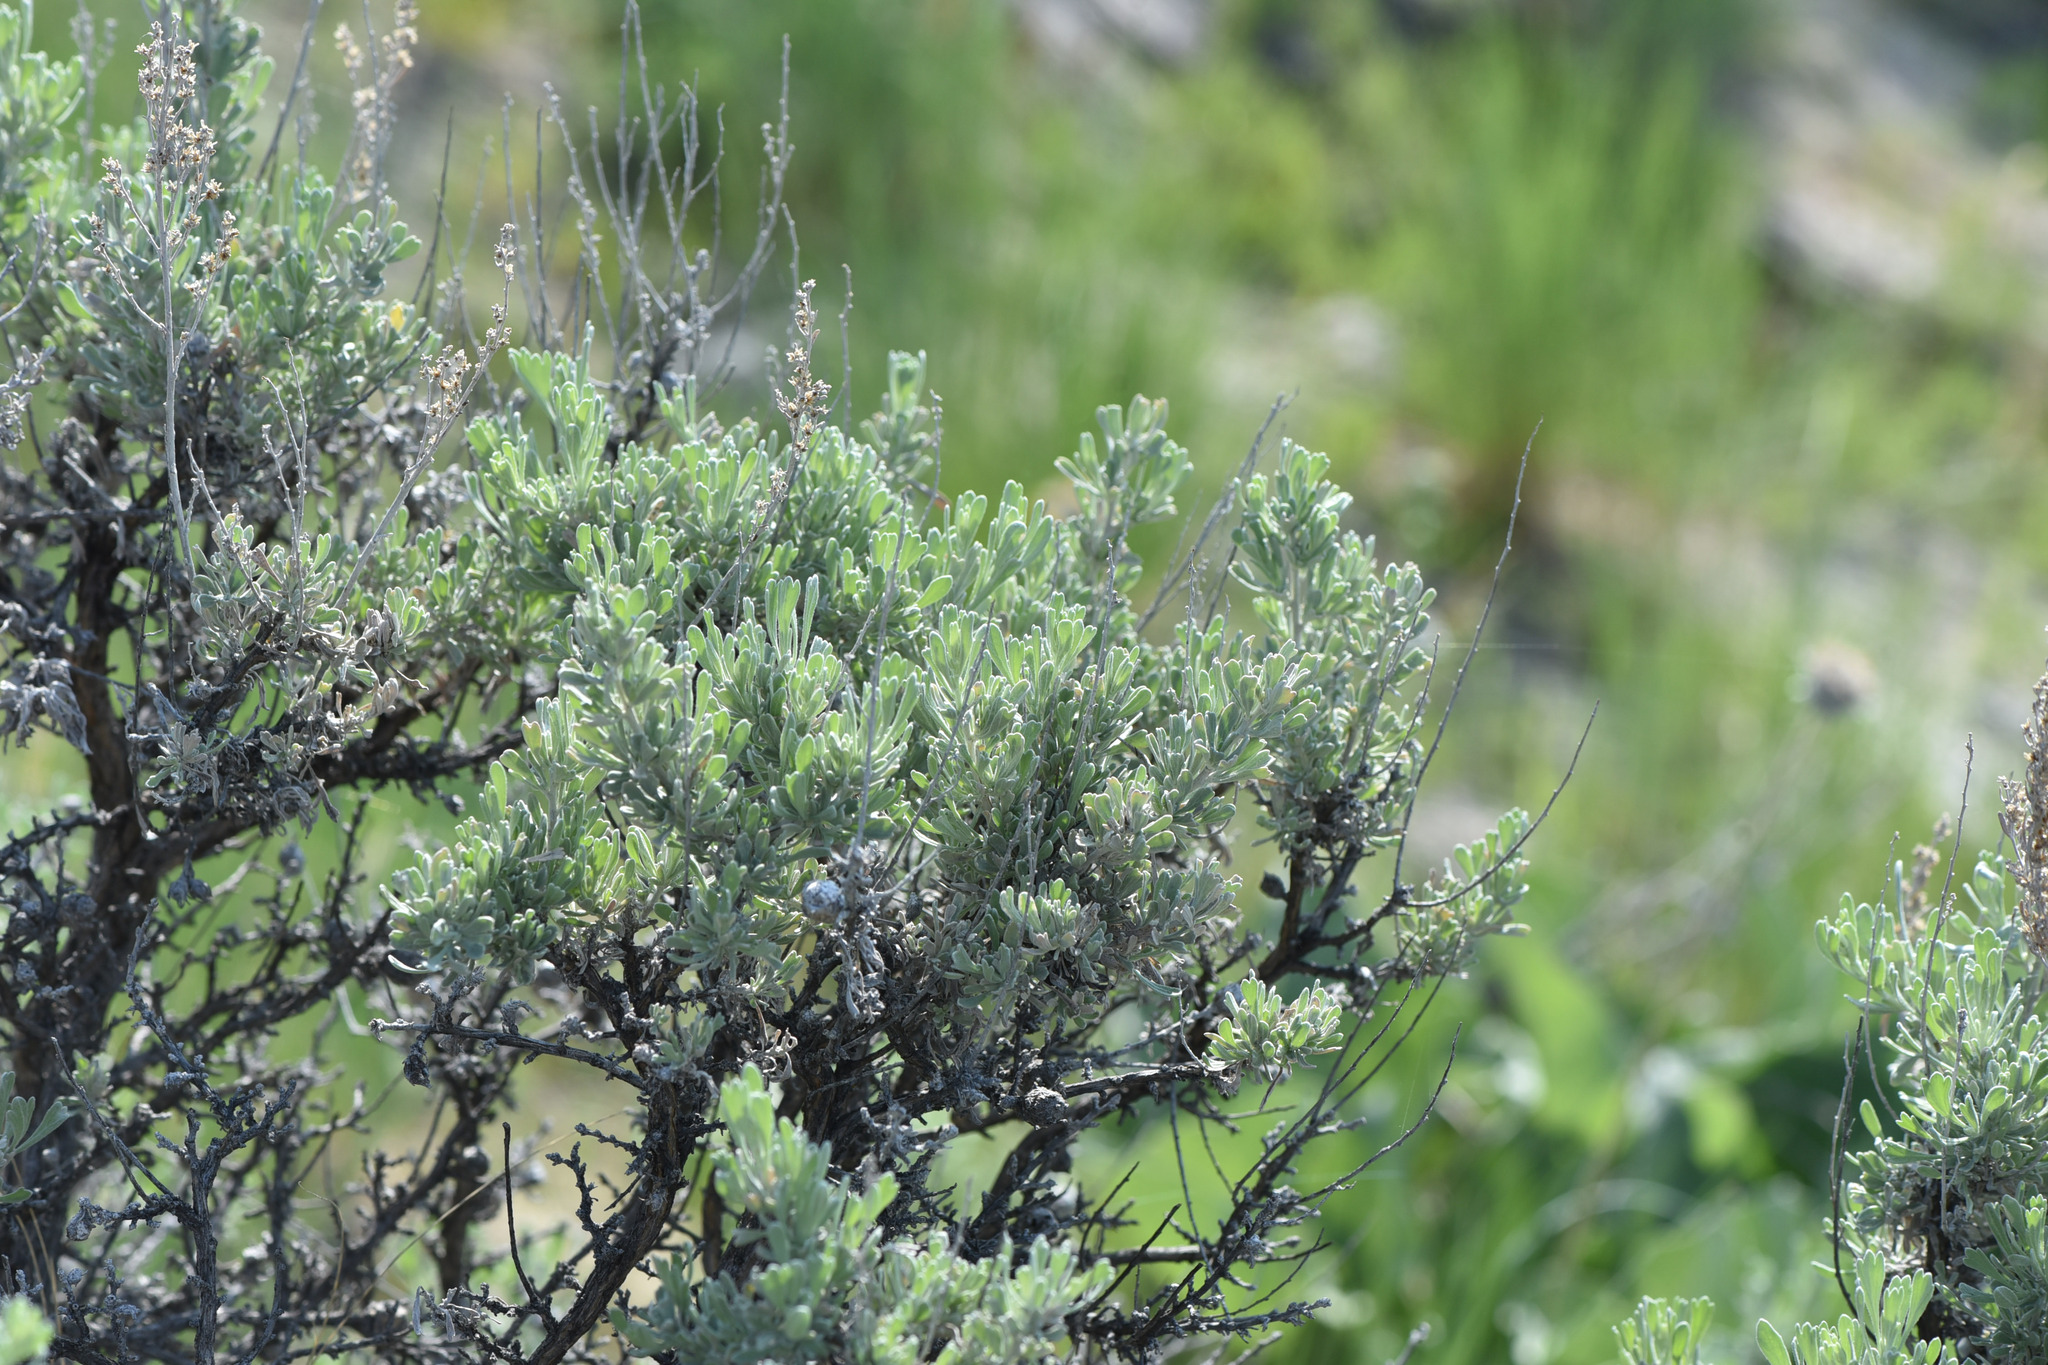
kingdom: Plantae
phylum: Tracheophyta
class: Magnoliopsida
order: Asterales
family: Asteraceae
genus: Artemisia
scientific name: Artemisia tridentata
